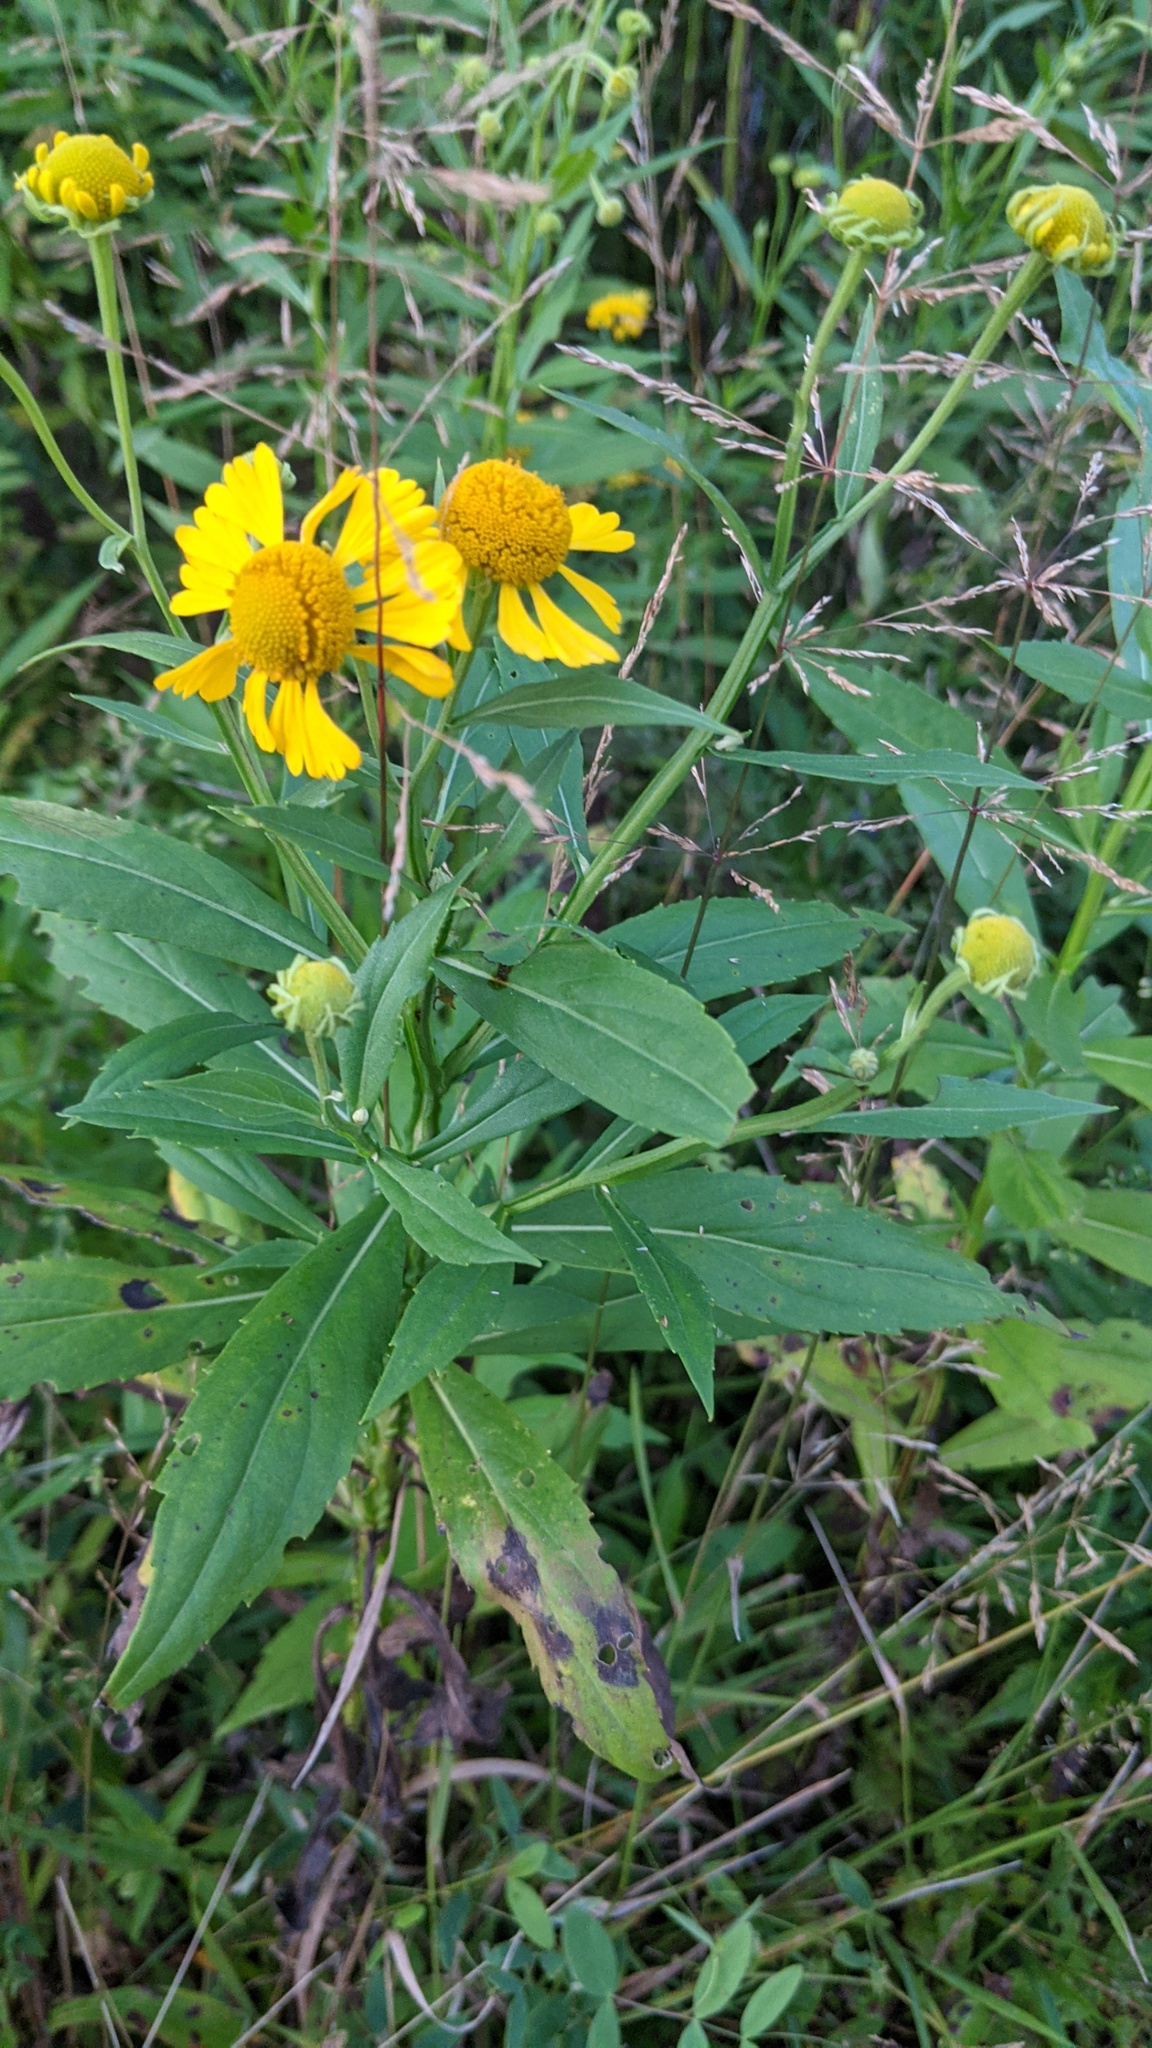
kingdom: Plantae
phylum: Tracheophyta
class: Magnoliopsida
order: Asterales
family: Asteraceae
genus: Helenium
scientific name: Helenium autumnale
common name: Sneezeweed
